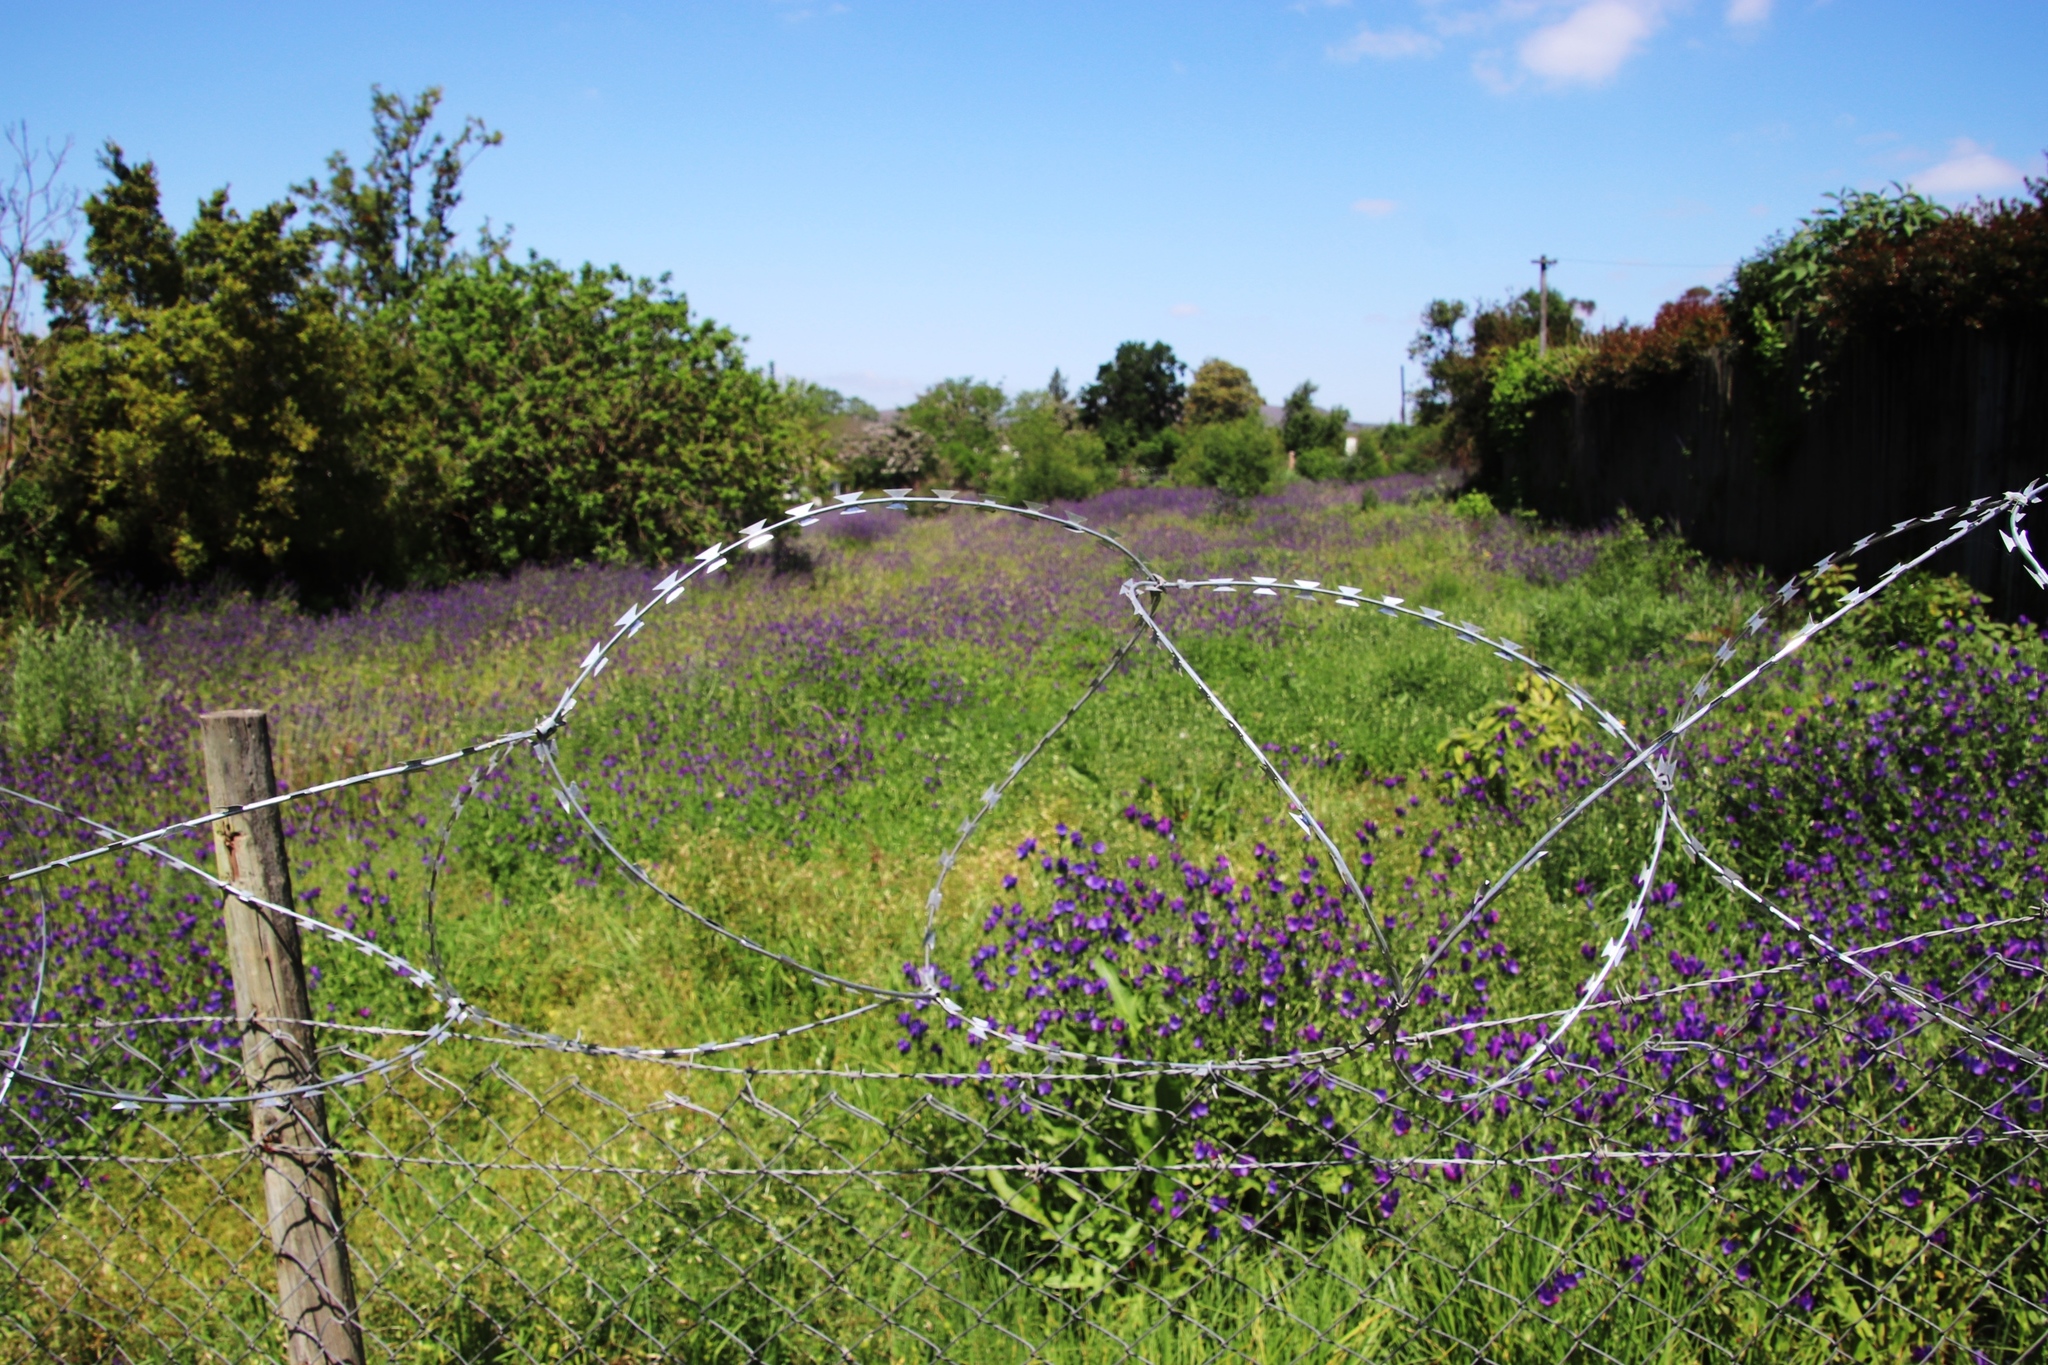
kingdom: Plantae
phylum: Tracheophyta
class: Magnoliopsida
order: Boraginales
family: Boraginaceae
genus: Echium
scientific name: Echium plantagineum
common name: Purple viper's-bugloss
